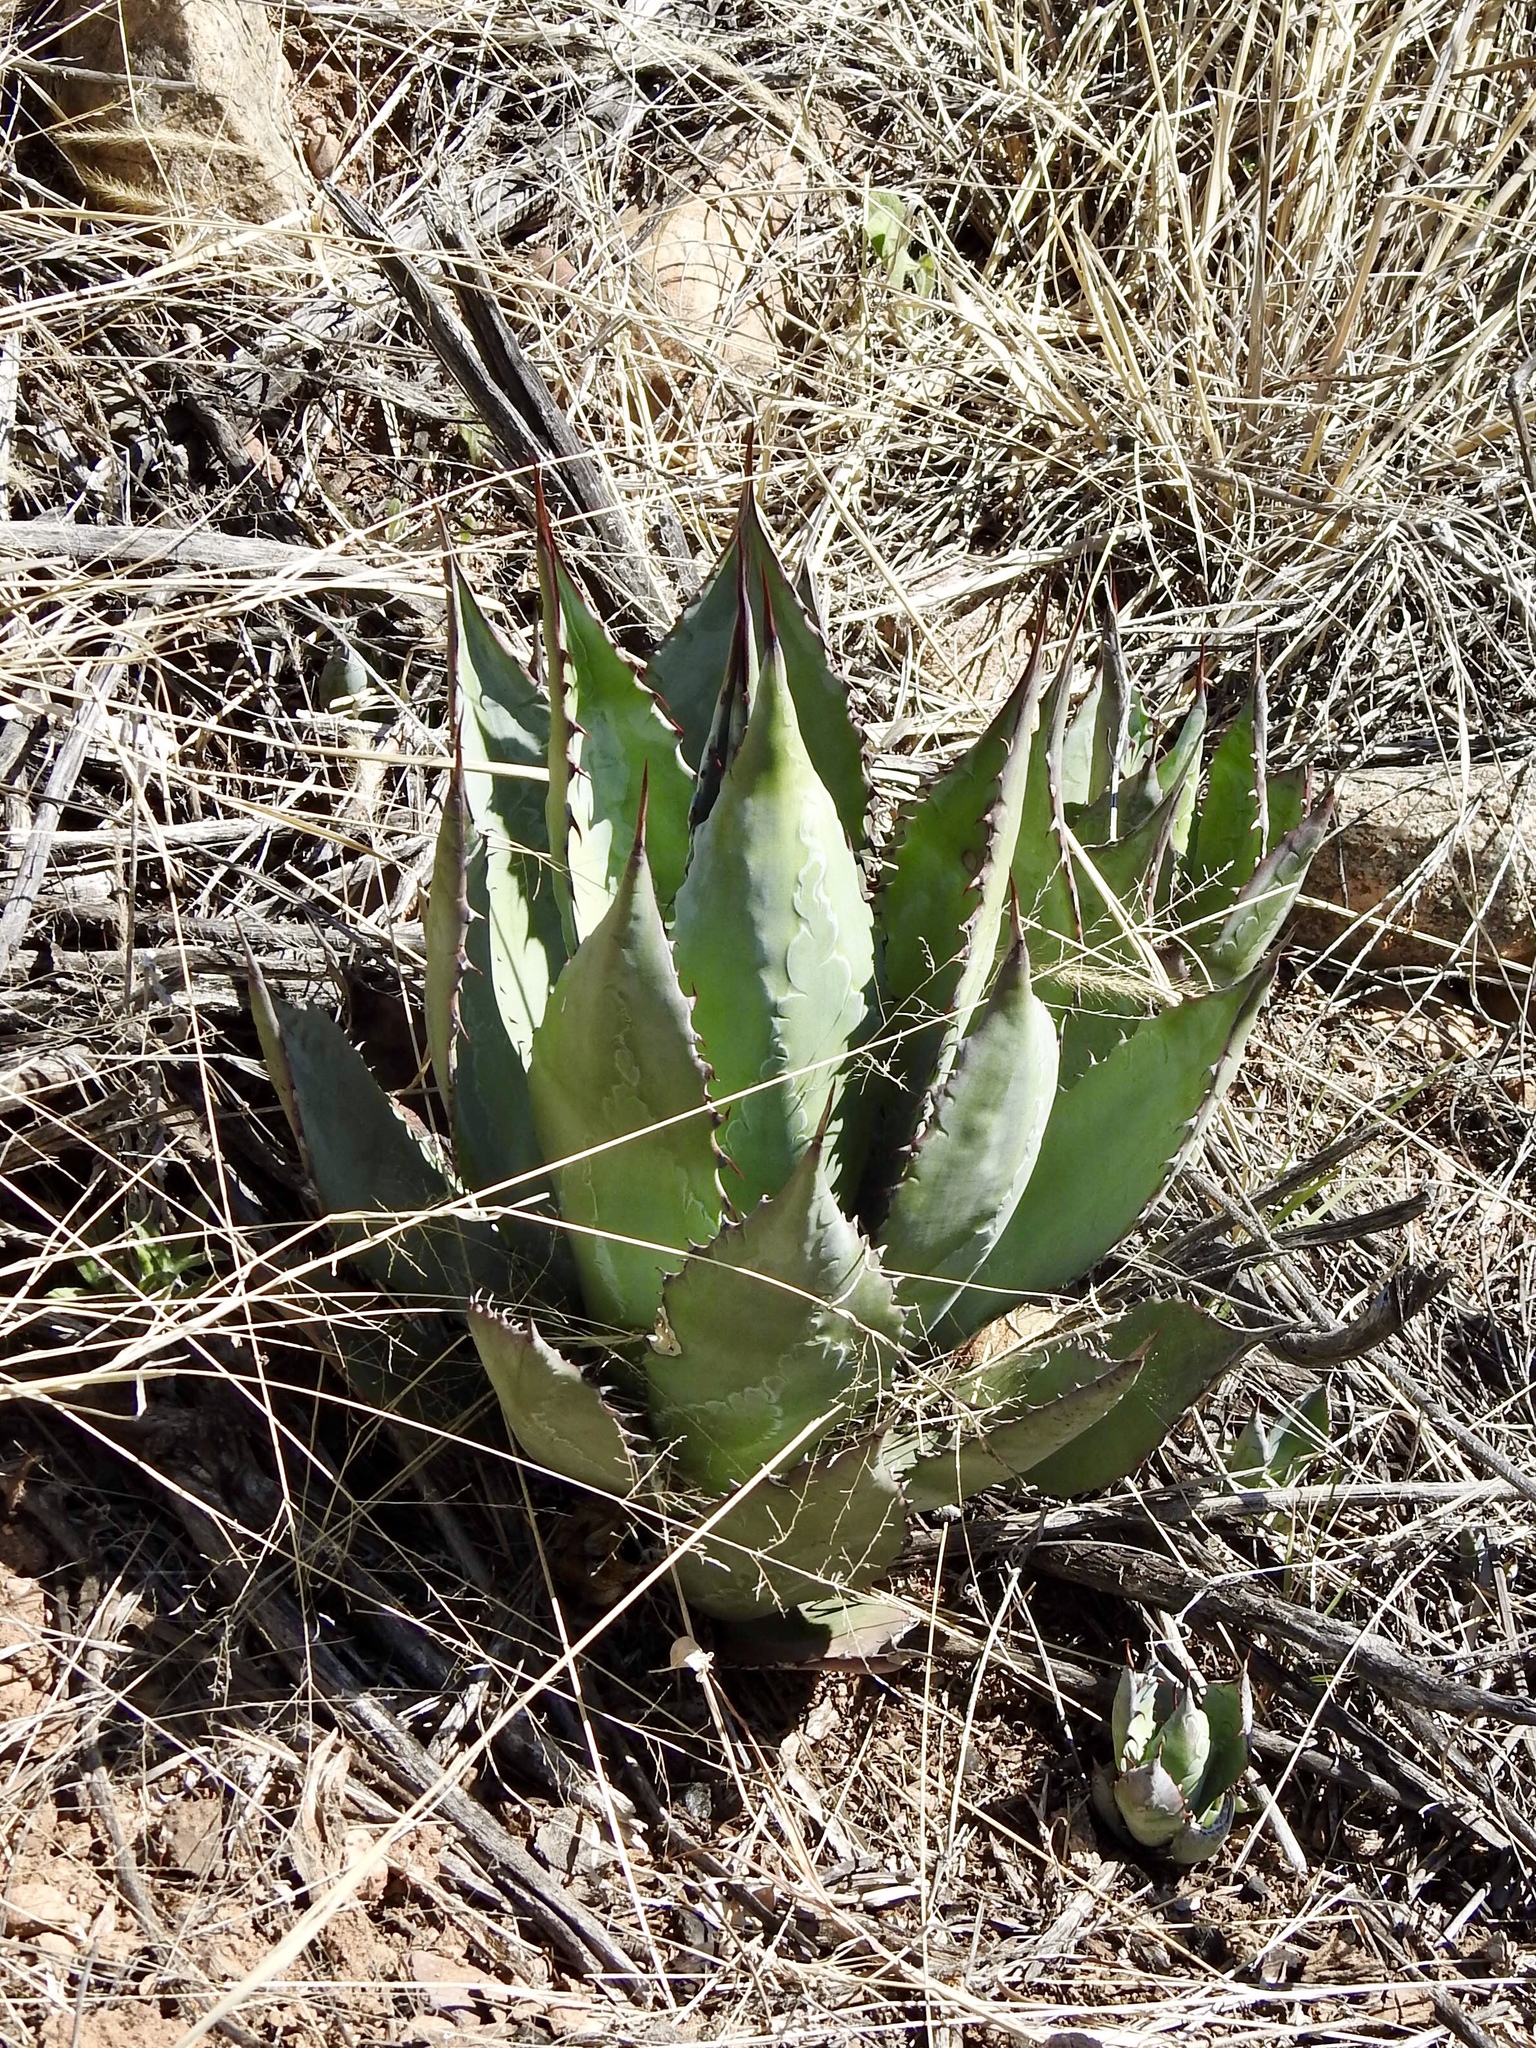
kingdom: Plantae
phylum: Tracheophyta
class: Liliopsida
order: Asparagales
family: Asparagaceae
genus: Agave
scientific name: Agave parryi
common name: Parry's agave
